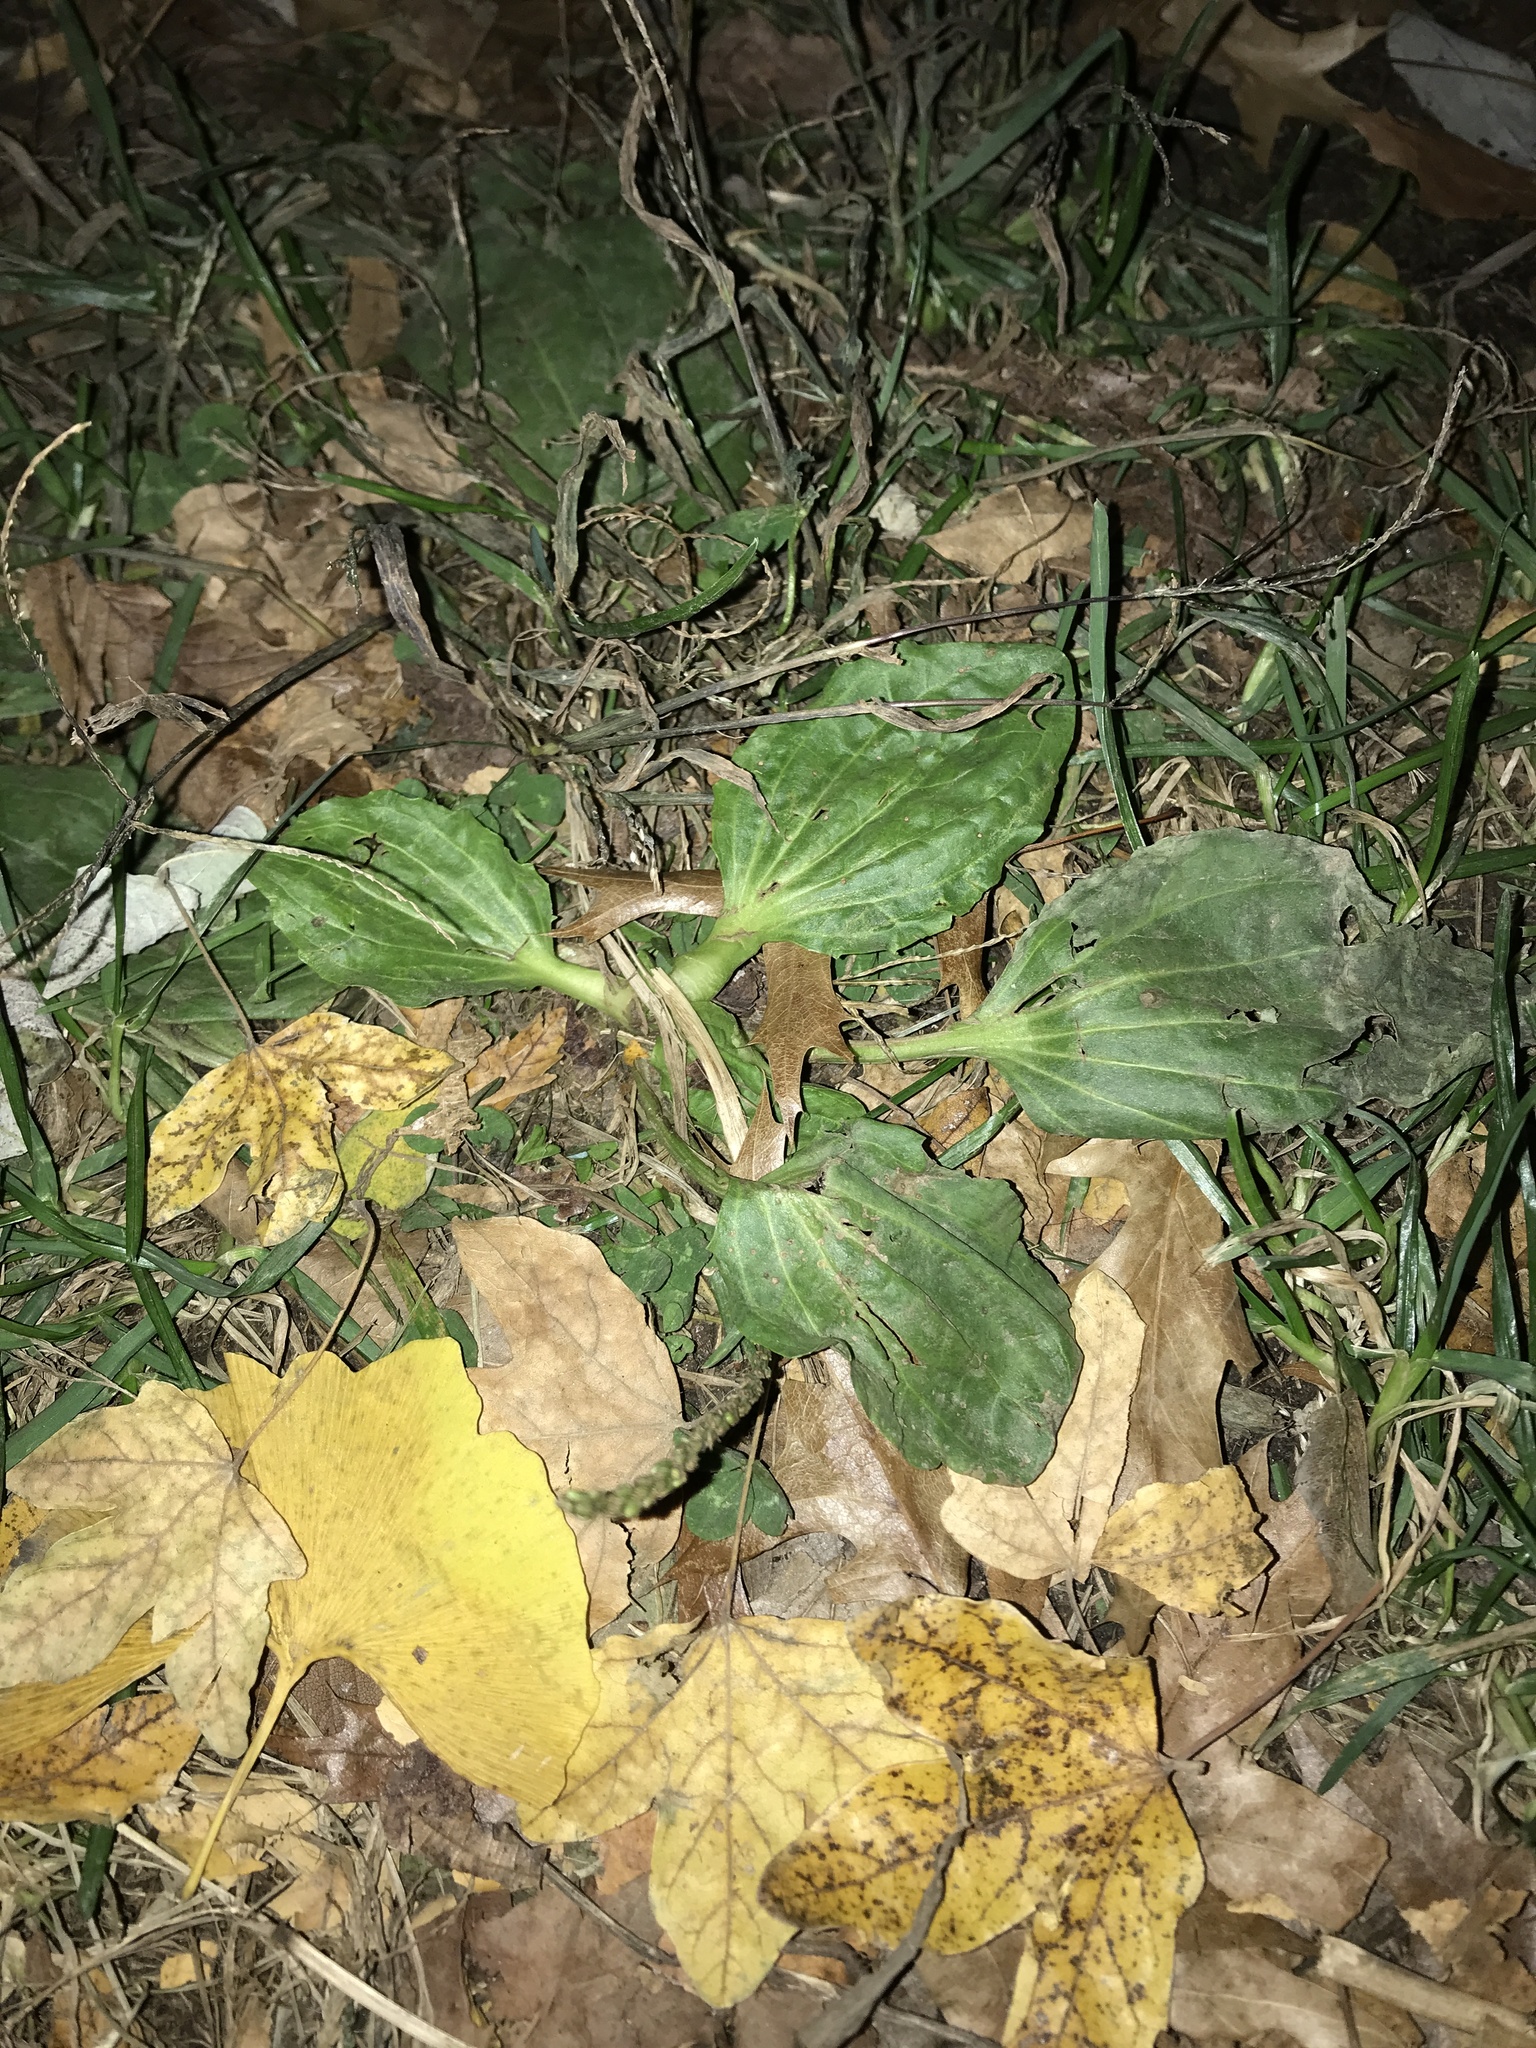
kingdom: Plantae
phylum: Tracheophyta
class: Magnoliopsida
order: Lamiales
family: Plantaginaceae
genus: Plantago
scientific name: Plantago major
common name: Common plantain
